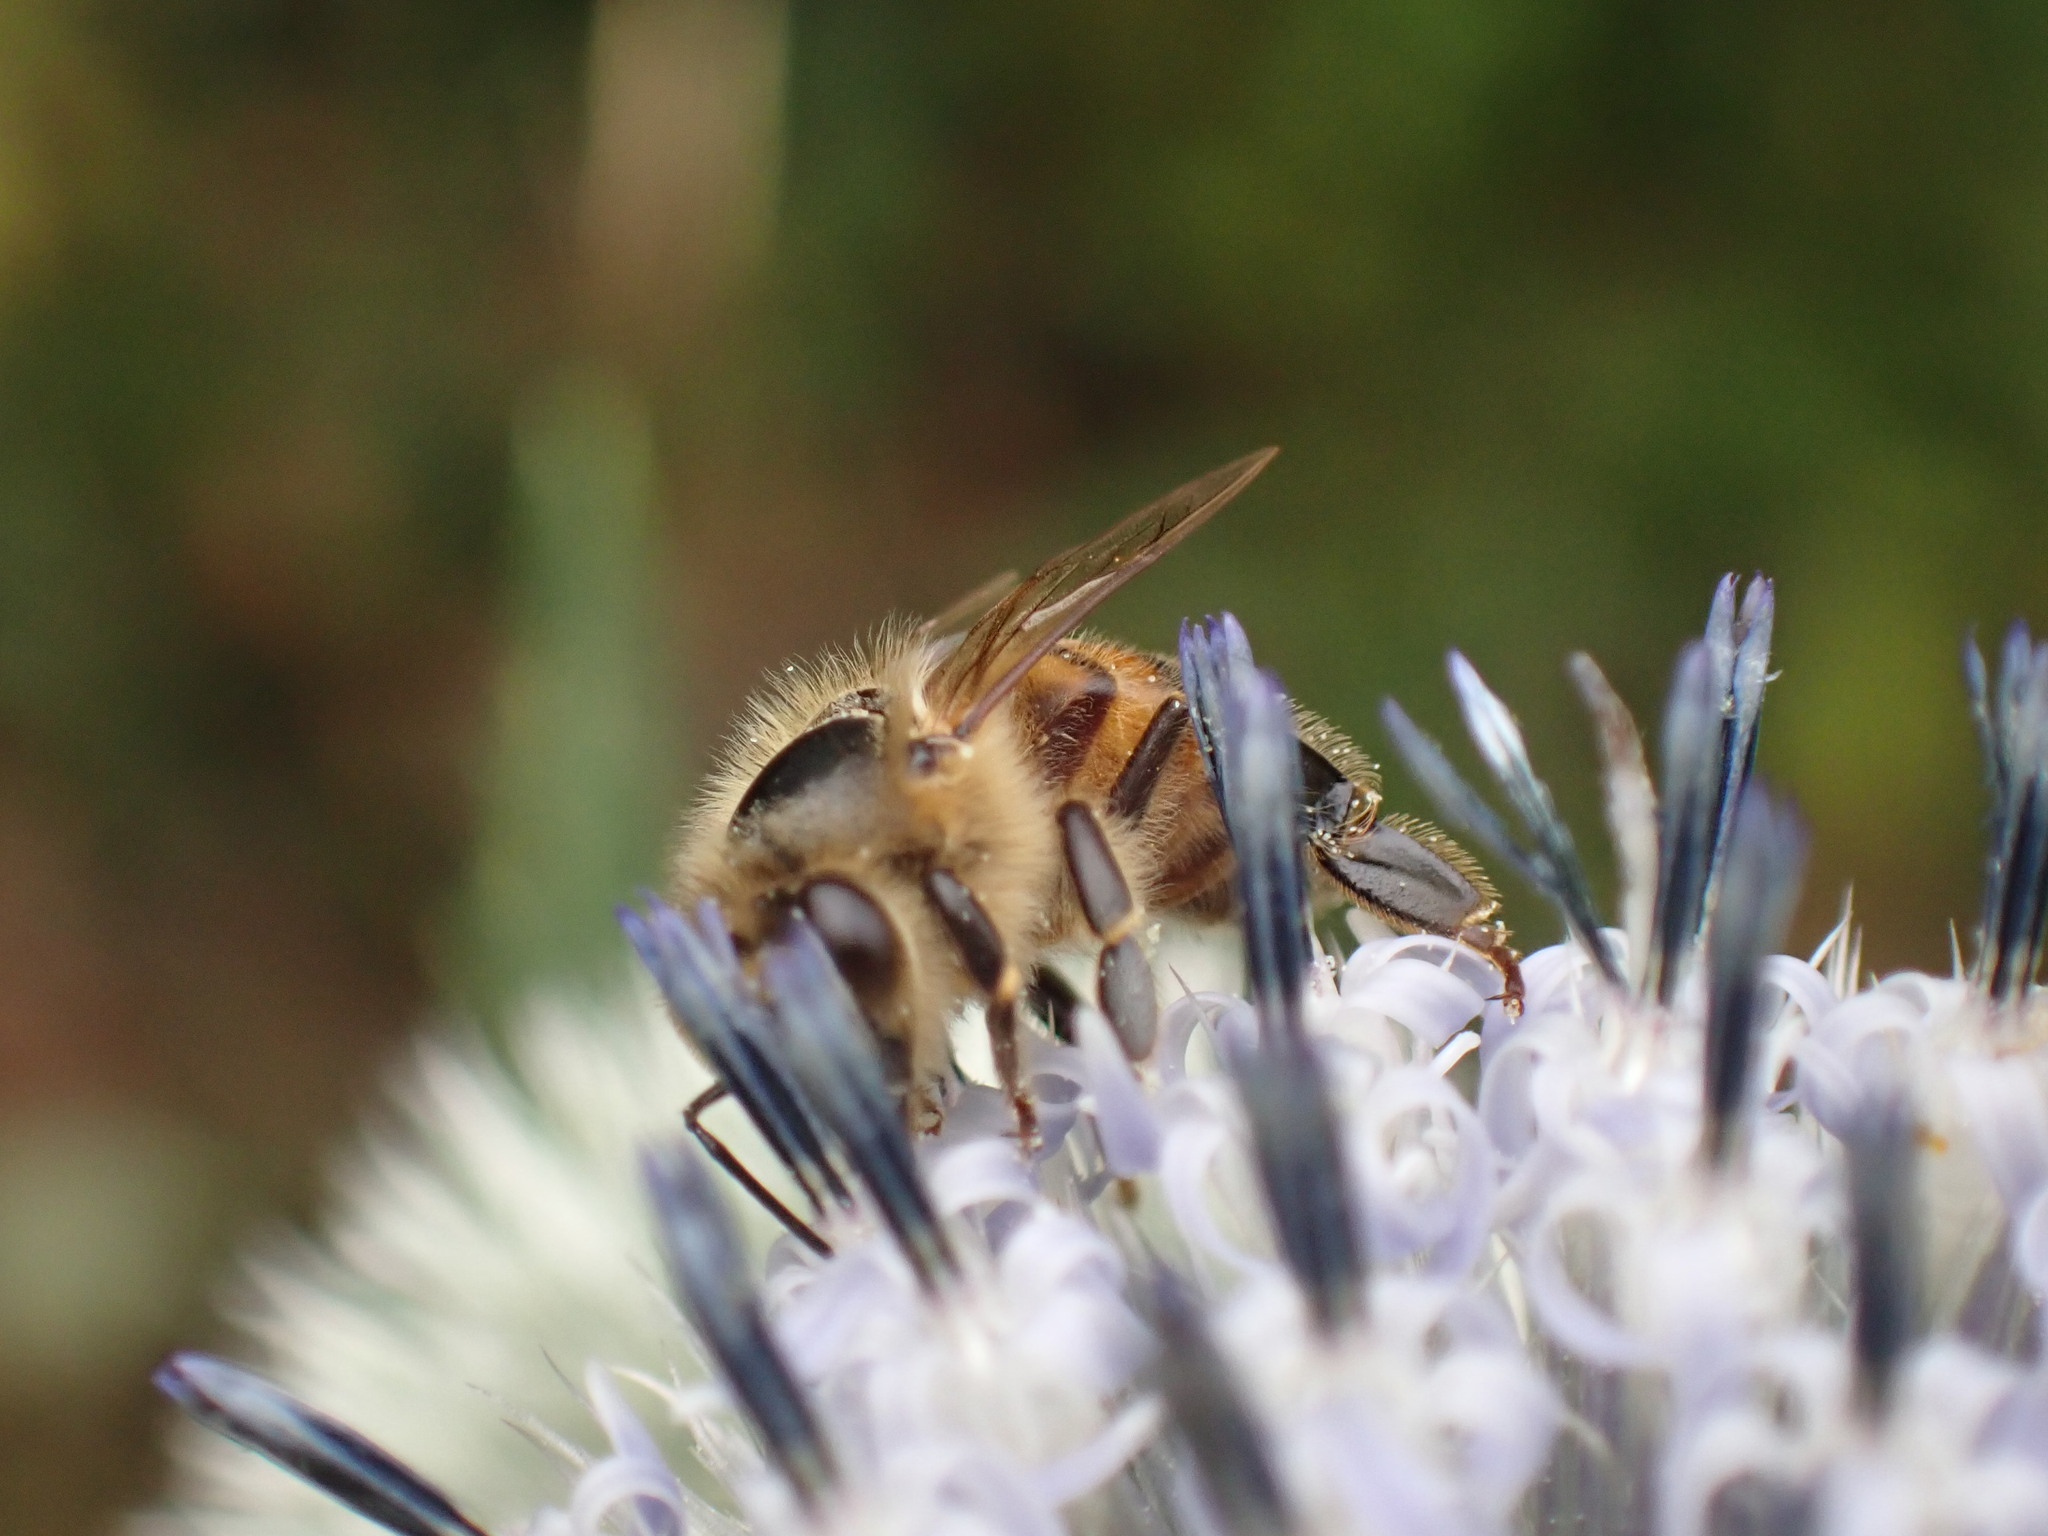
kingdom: Animalia
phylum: Arthropoda
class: Insecta
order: Hymenoptera
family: Apidae
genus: Apis
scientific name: Apis mellifera
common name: Honey bee
